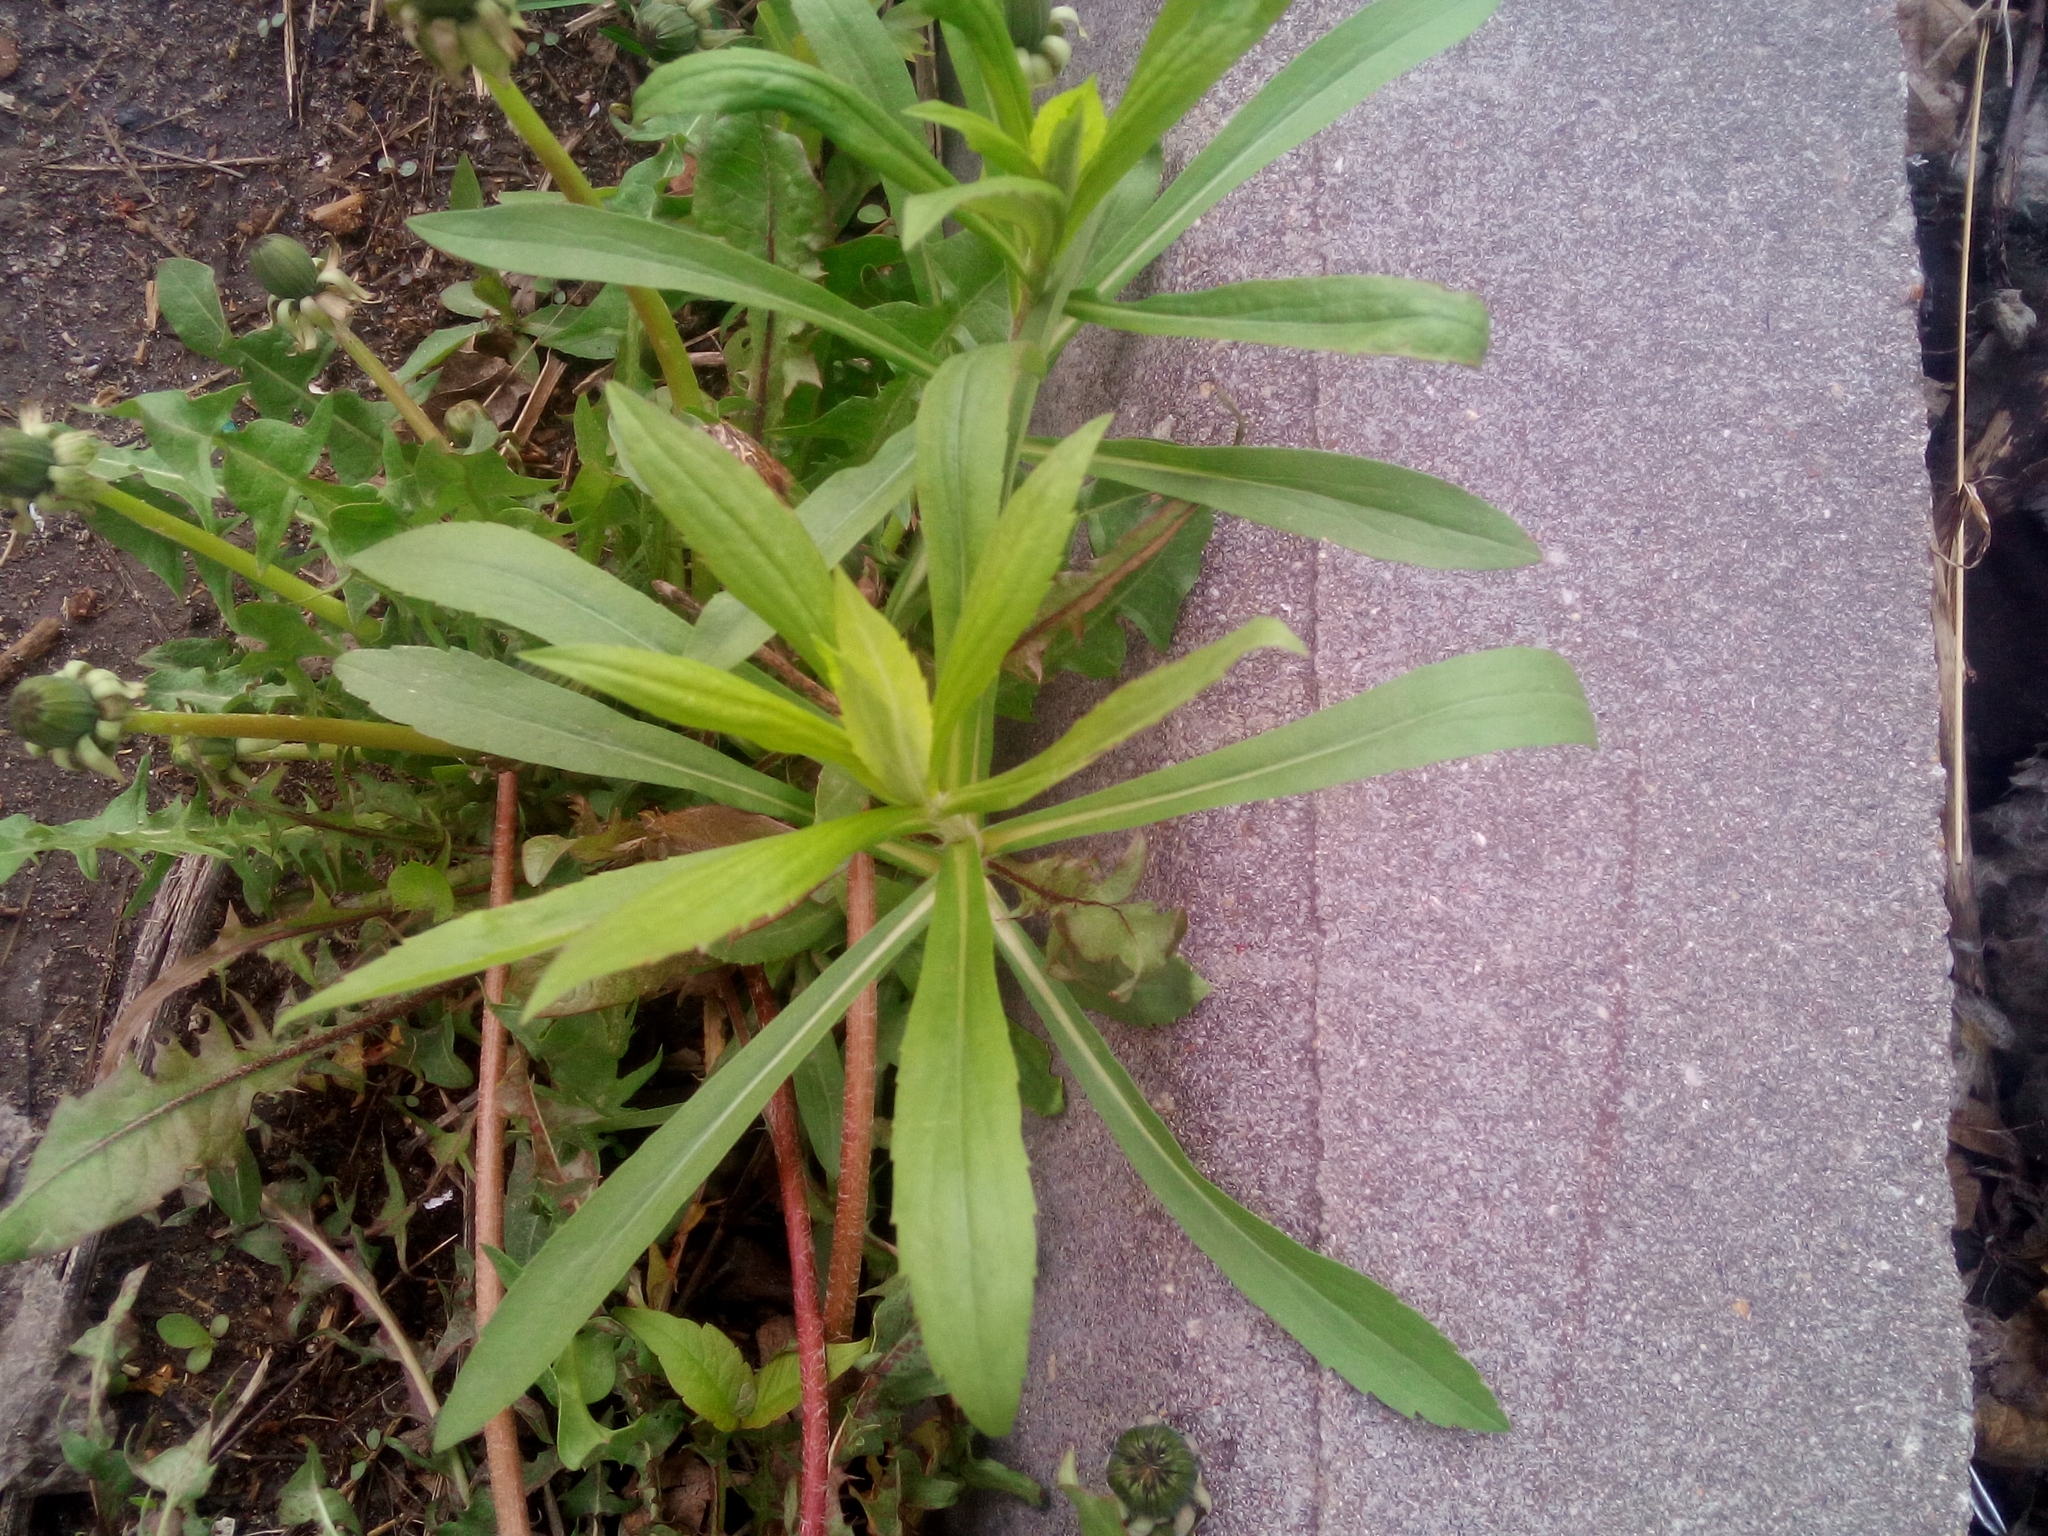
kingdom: Plantae
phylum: Tracheophyta
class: Magnoliopsida
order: Asterales
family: Asteraceae
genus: Solidago
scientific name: Solidago canadensis
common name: Canada goldenrod
